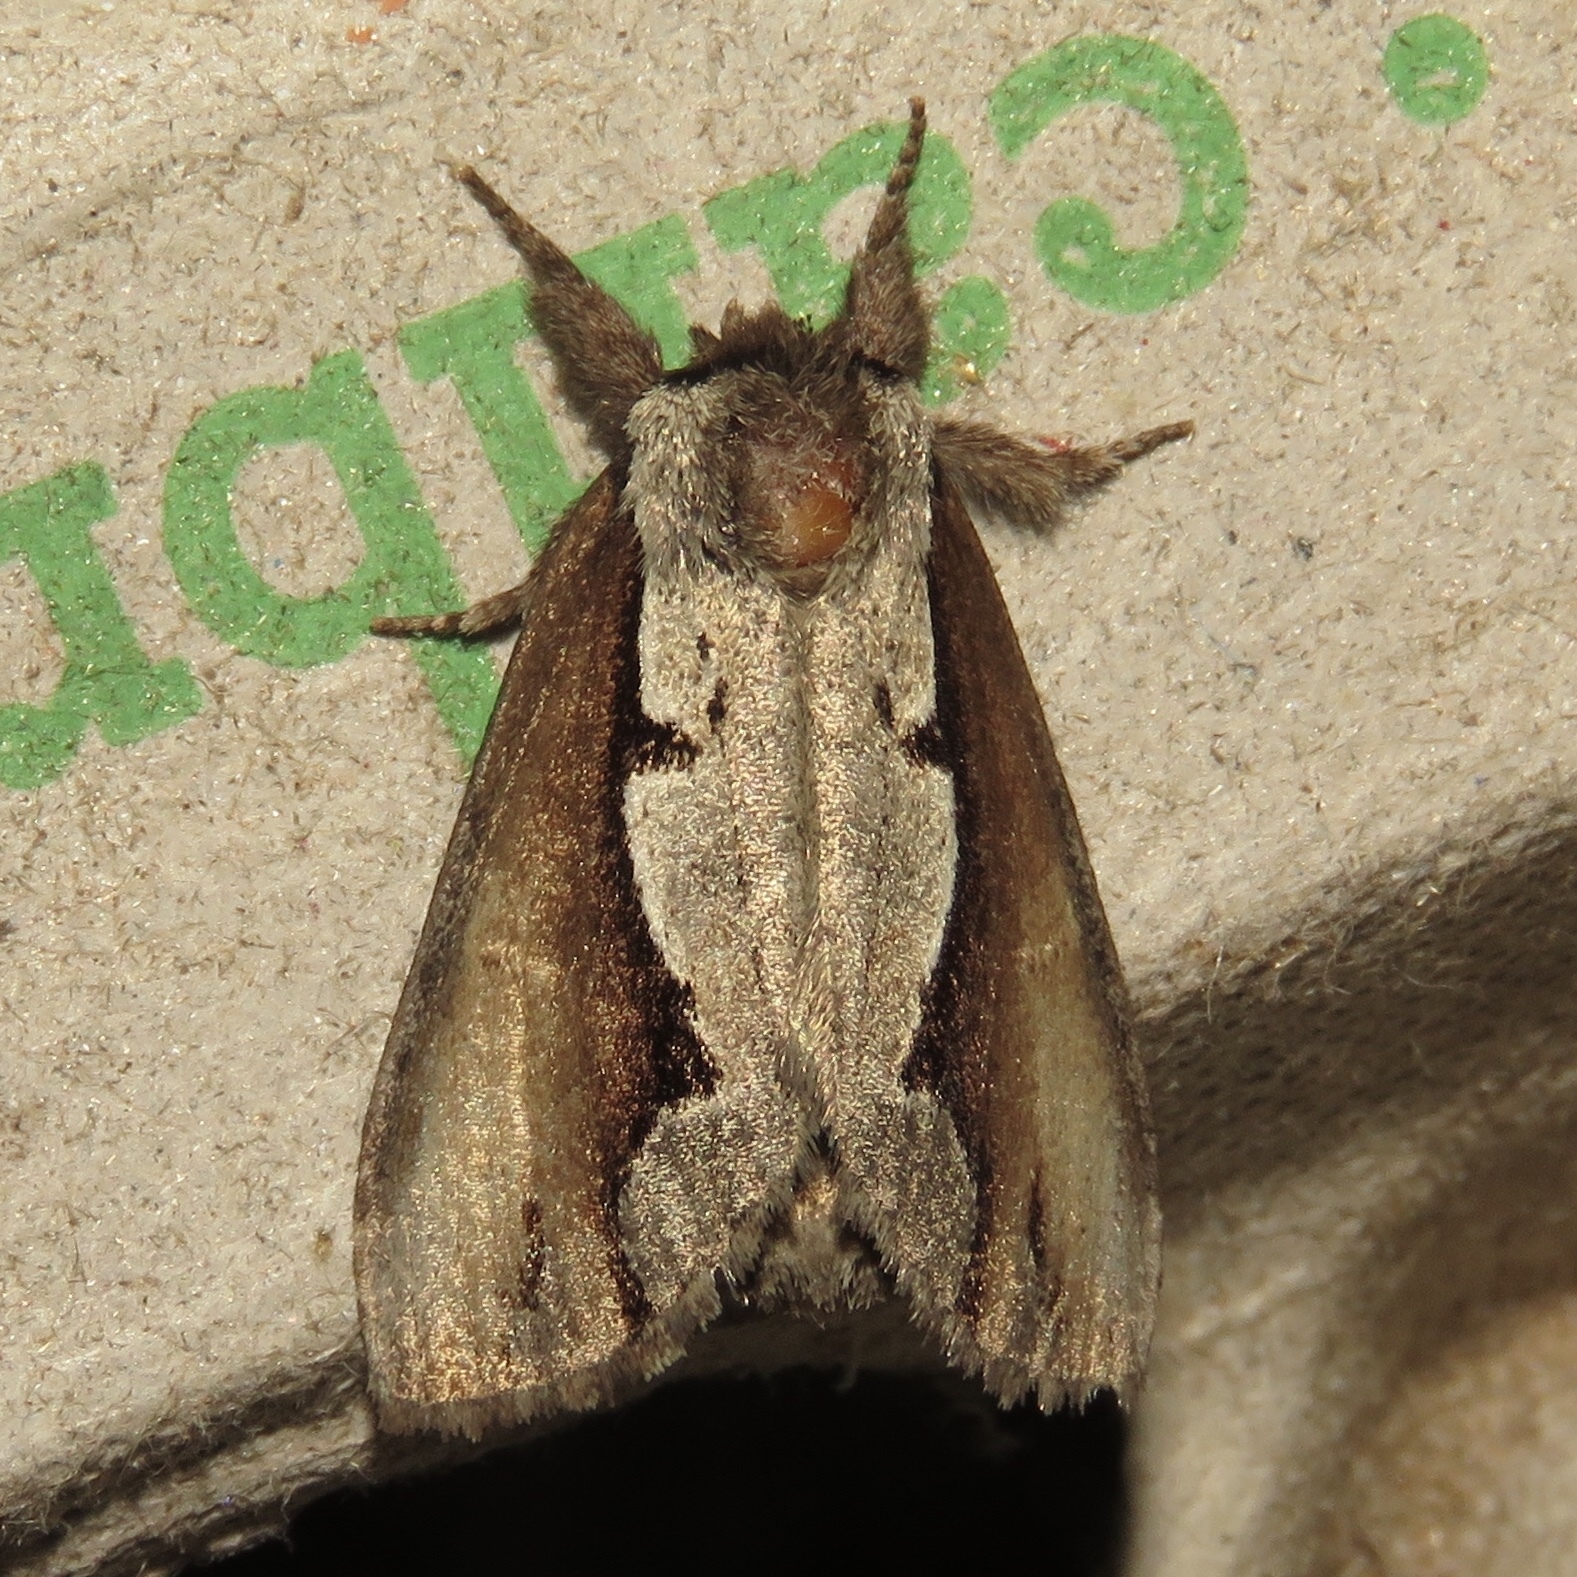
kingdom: Animalia
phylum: Arthropoda
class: Insecta
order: Lepidoptera
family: Notodontidae
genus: Nerice
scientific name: Nerice bidentata
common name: Double-toothed prominent
